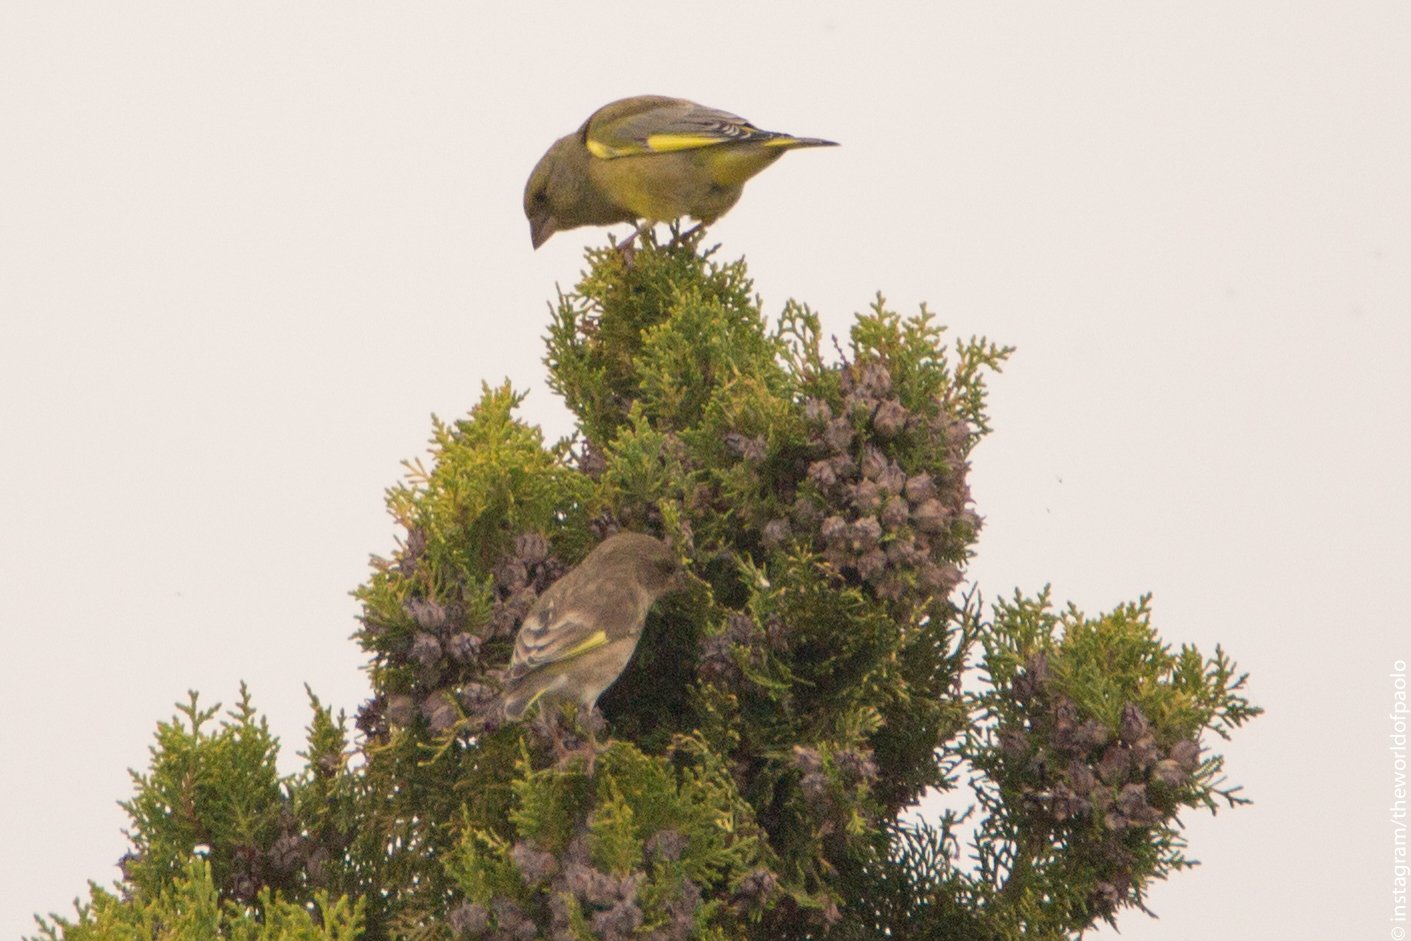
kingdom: Plantae
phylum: Tracheophyta
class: Liliopsida
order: Poales
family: Poaceae
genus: Chloris
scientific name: Chloris chloris
